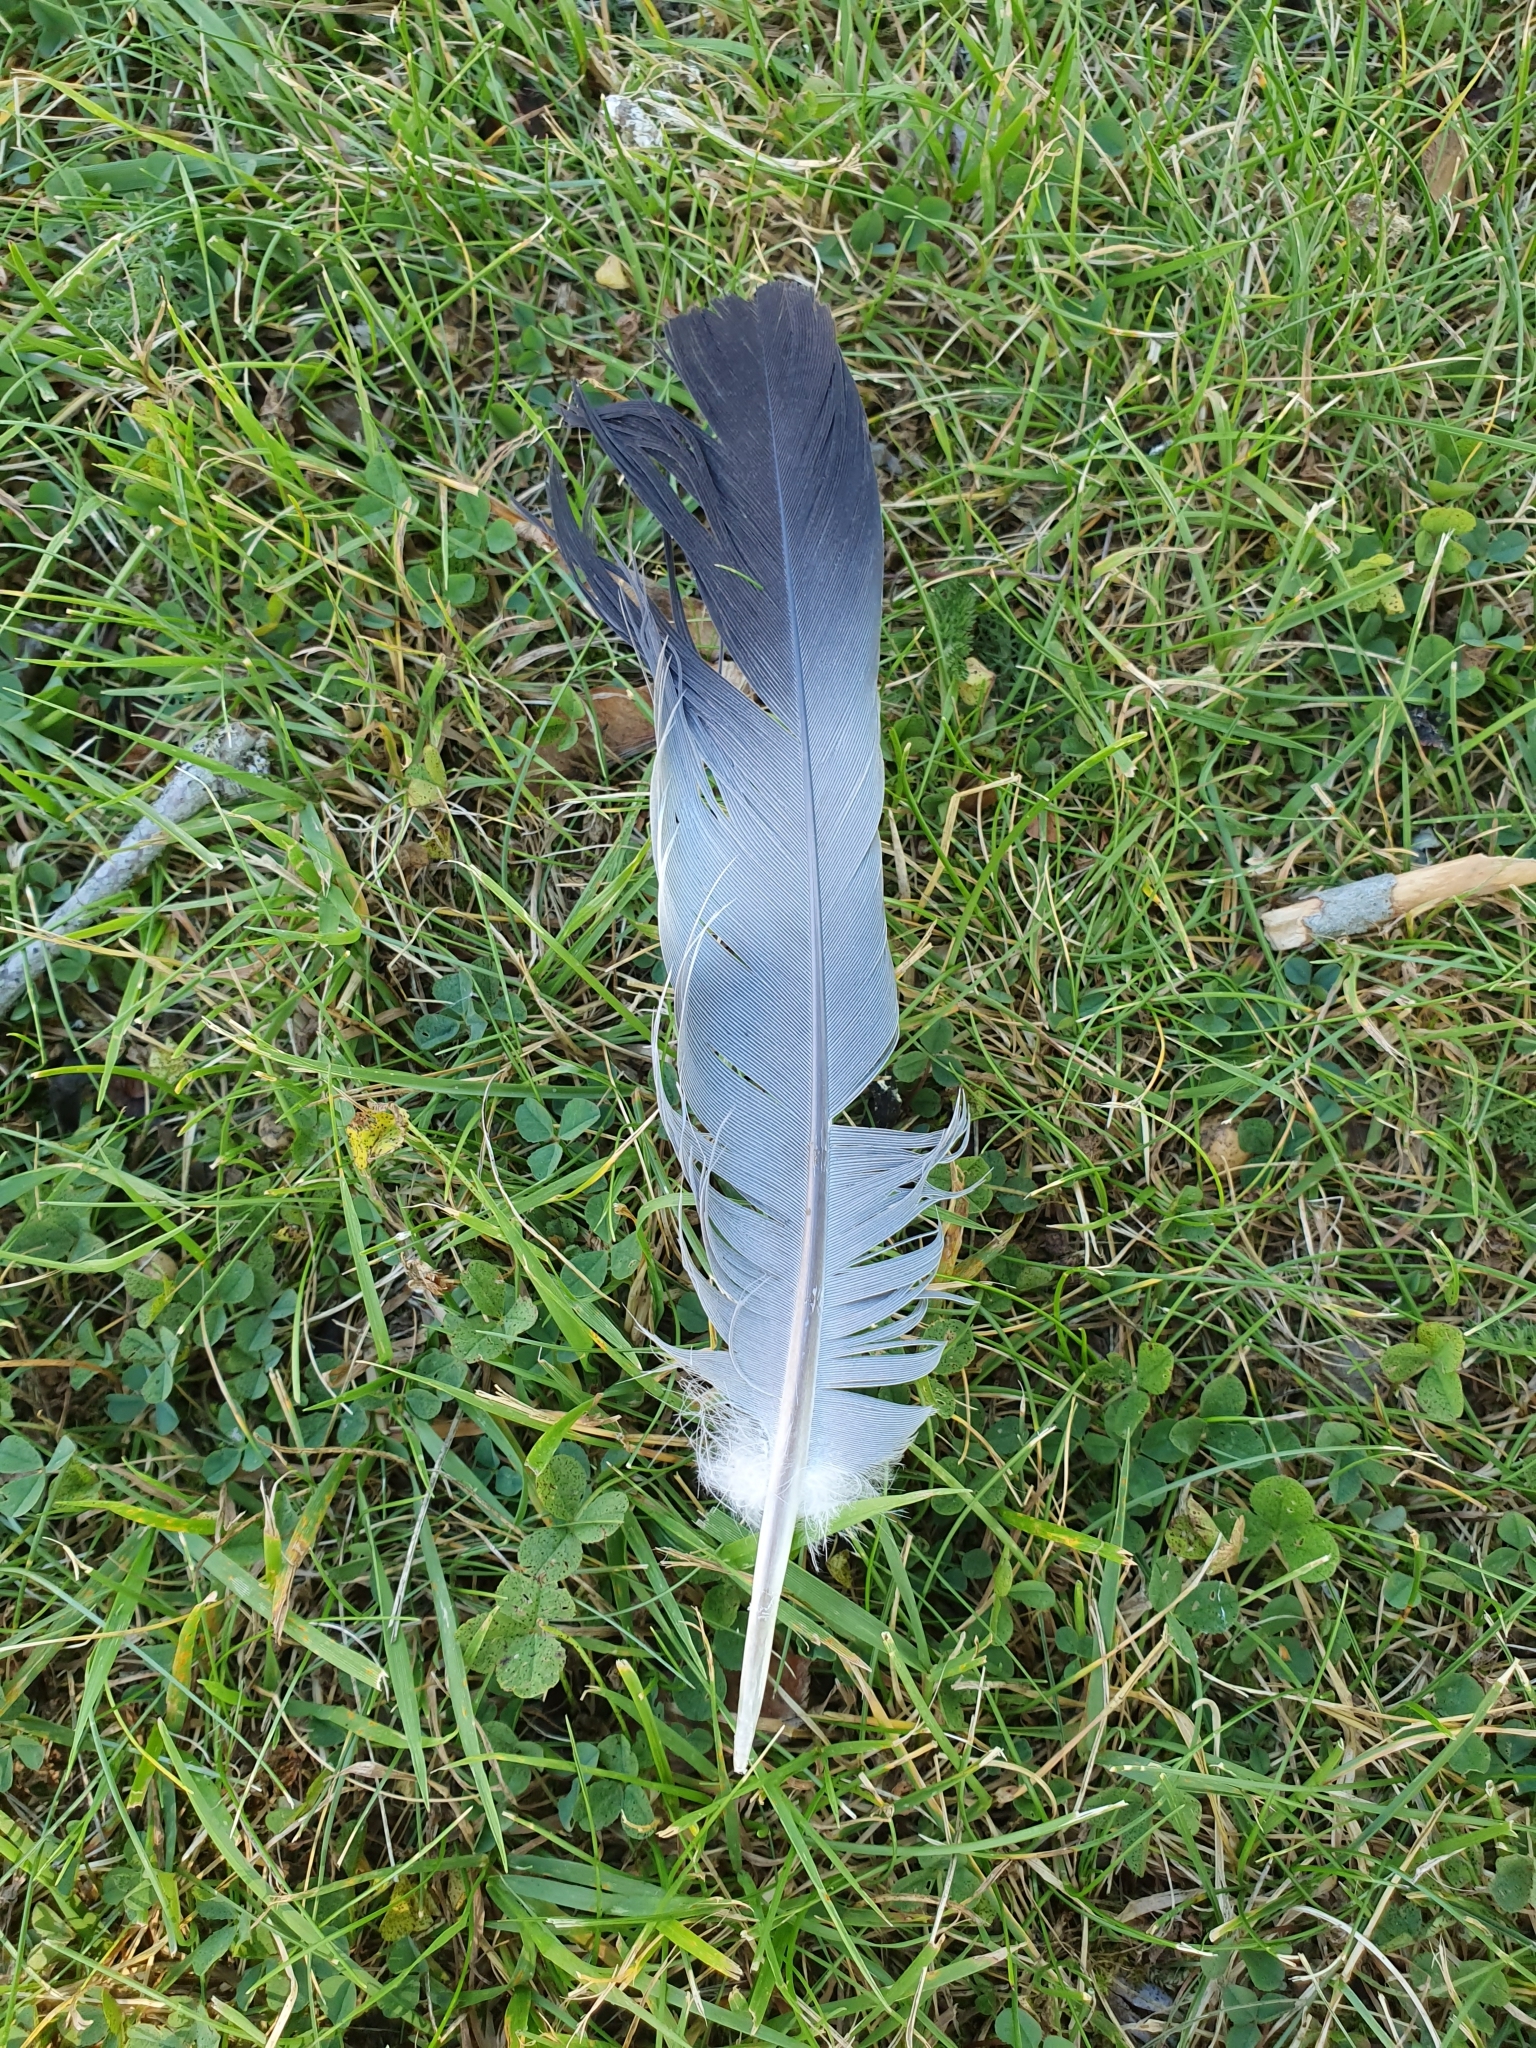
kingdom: Animalia
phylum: Chordata
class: Aves
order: Columbiformes
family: Columbidae
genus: Columba
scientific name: Columba palumbus
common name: Common wood pigeon
